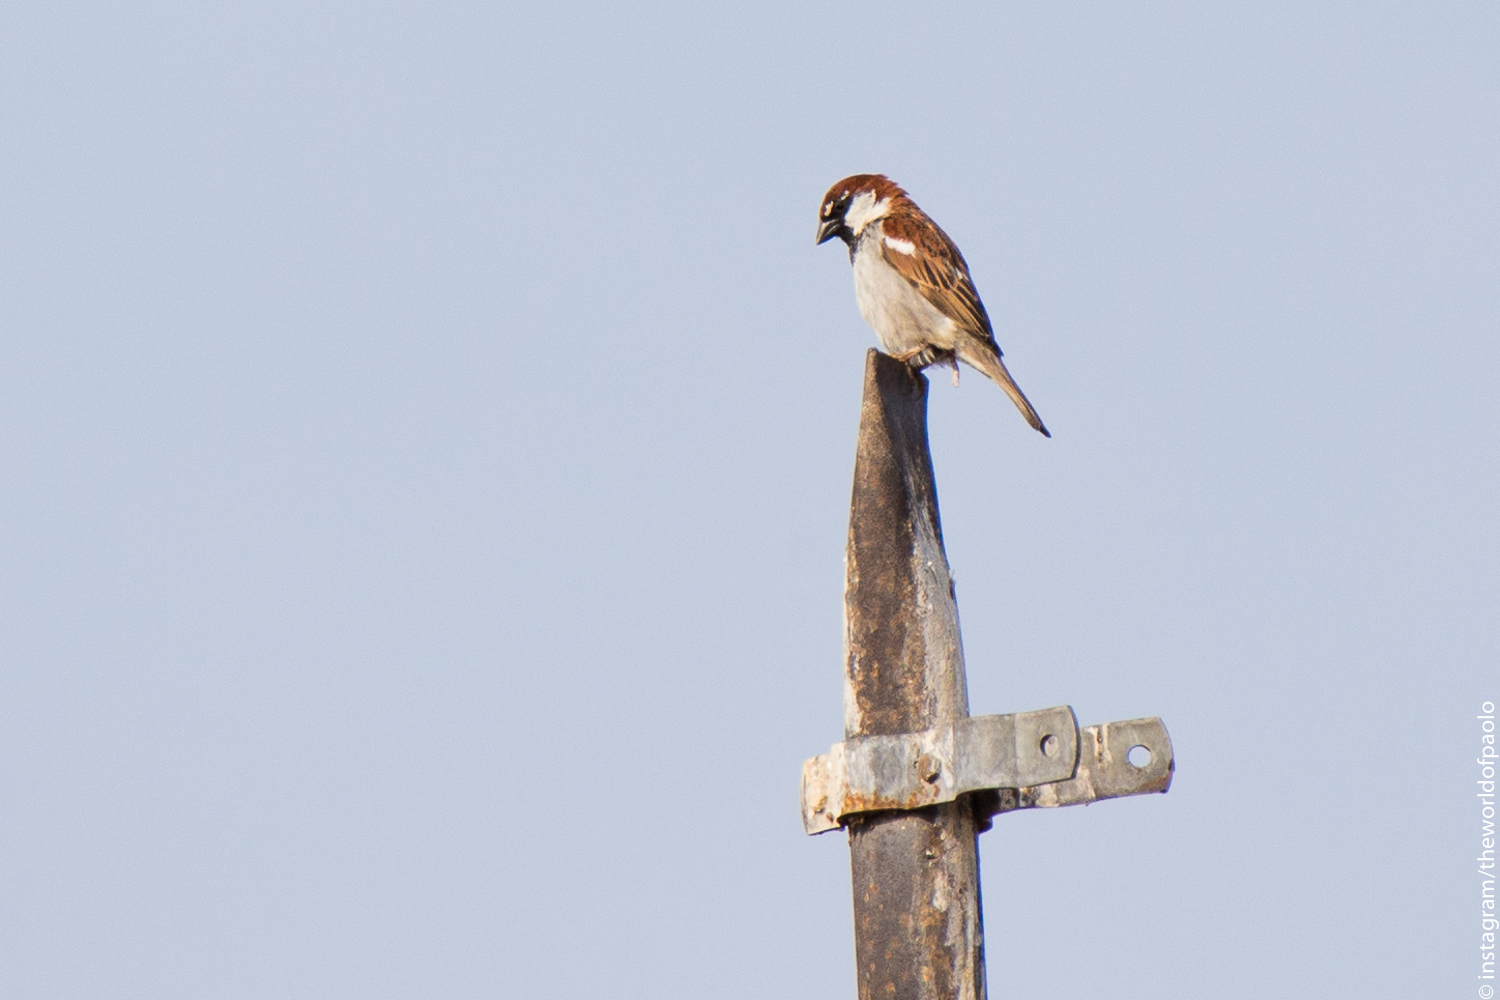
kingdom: Animalia
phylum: Chordata
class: Aves
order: Passeriformes
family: Passeridae
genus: Passer
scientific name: Passer italiae
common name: Italian sparrow
